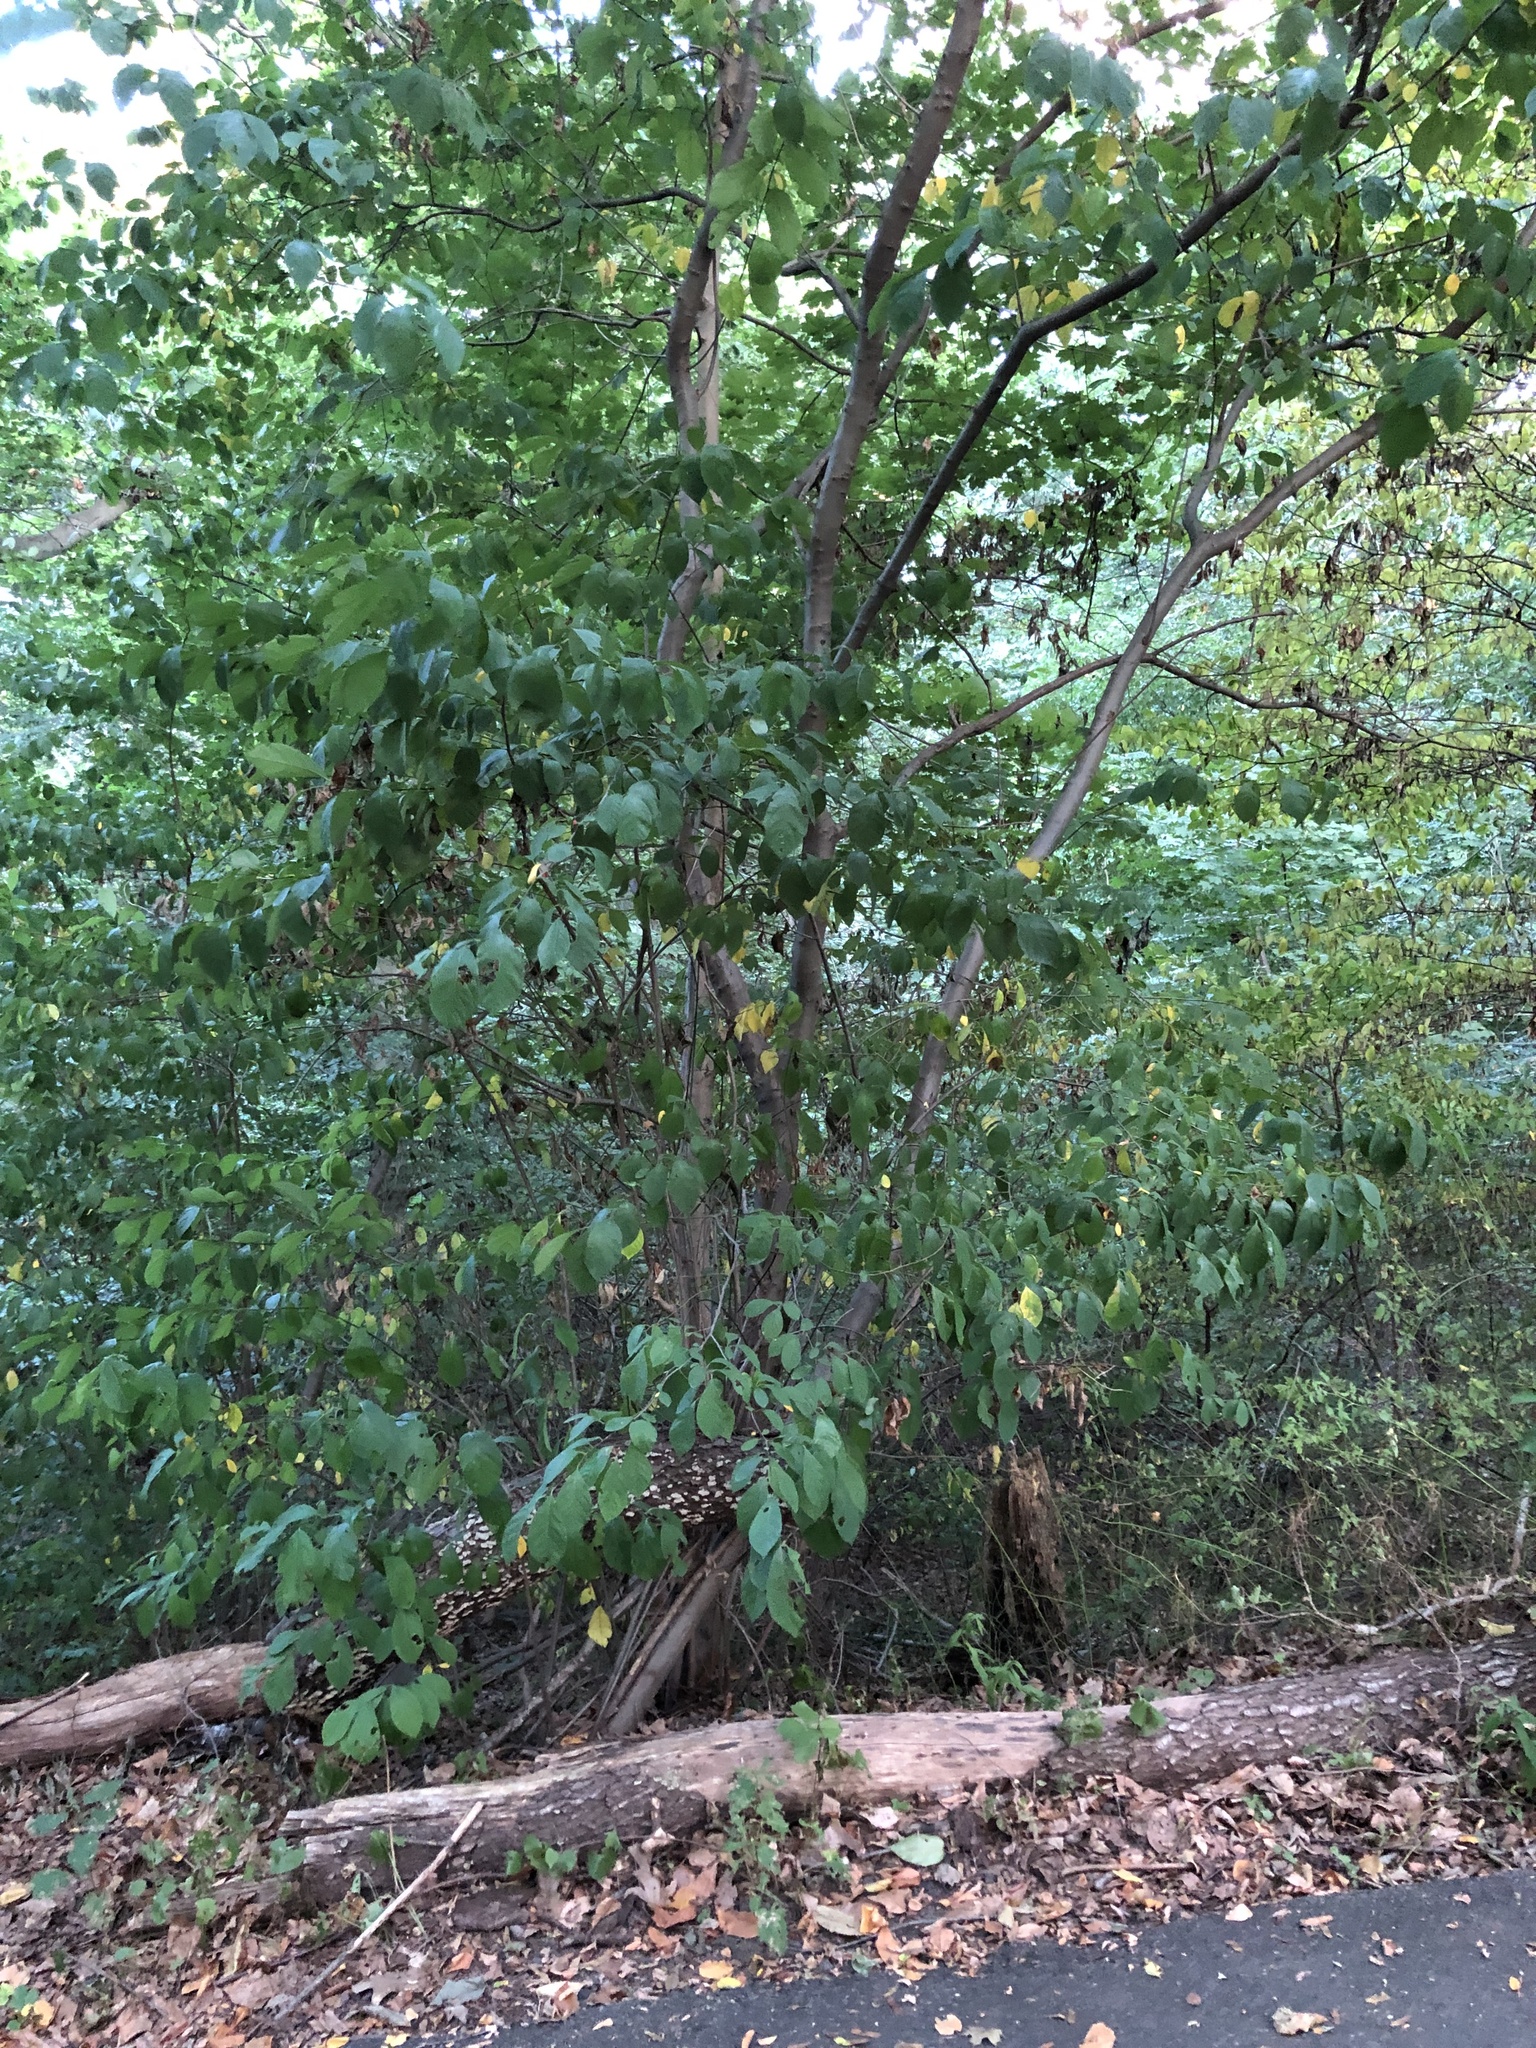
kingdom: Plantae
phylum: Tracheophyta
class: Magnoliopsida
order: Laurales
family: Lauraceae
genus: Lindera
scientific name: Lindera benzoin
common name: Spicebush
